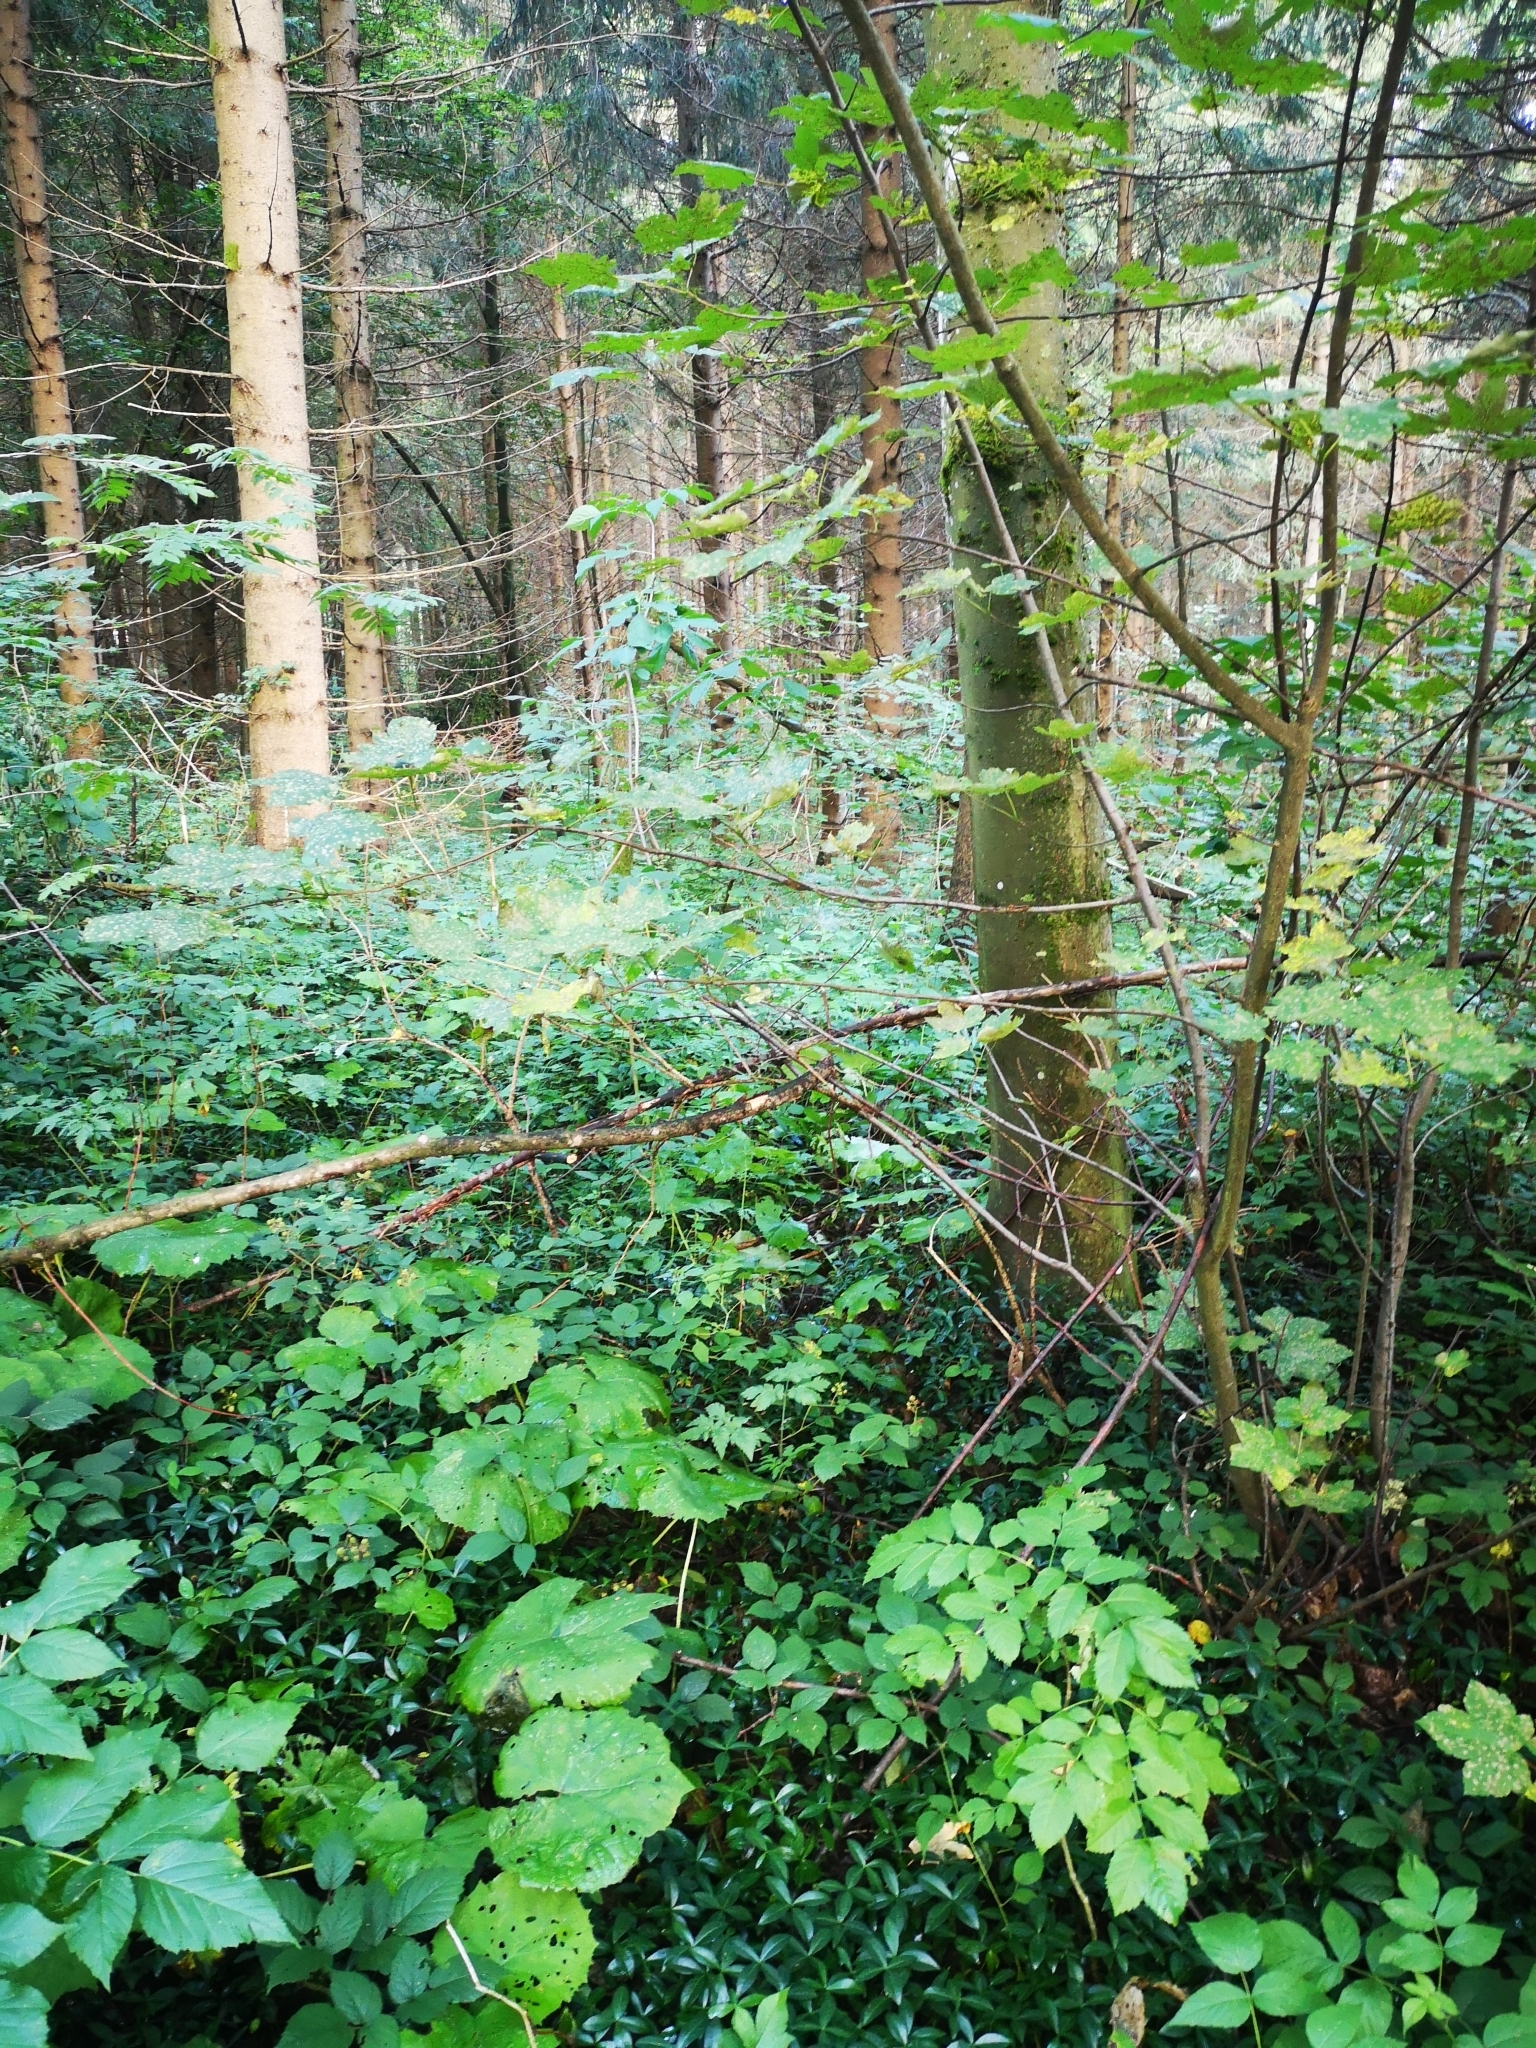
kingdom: Plantae
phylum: Tracheophyta
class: Magnoliopsida
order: Gentianales
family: Apocynaceae
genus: Vinca
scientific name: Vinca minor
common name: Lesser periwinkle
